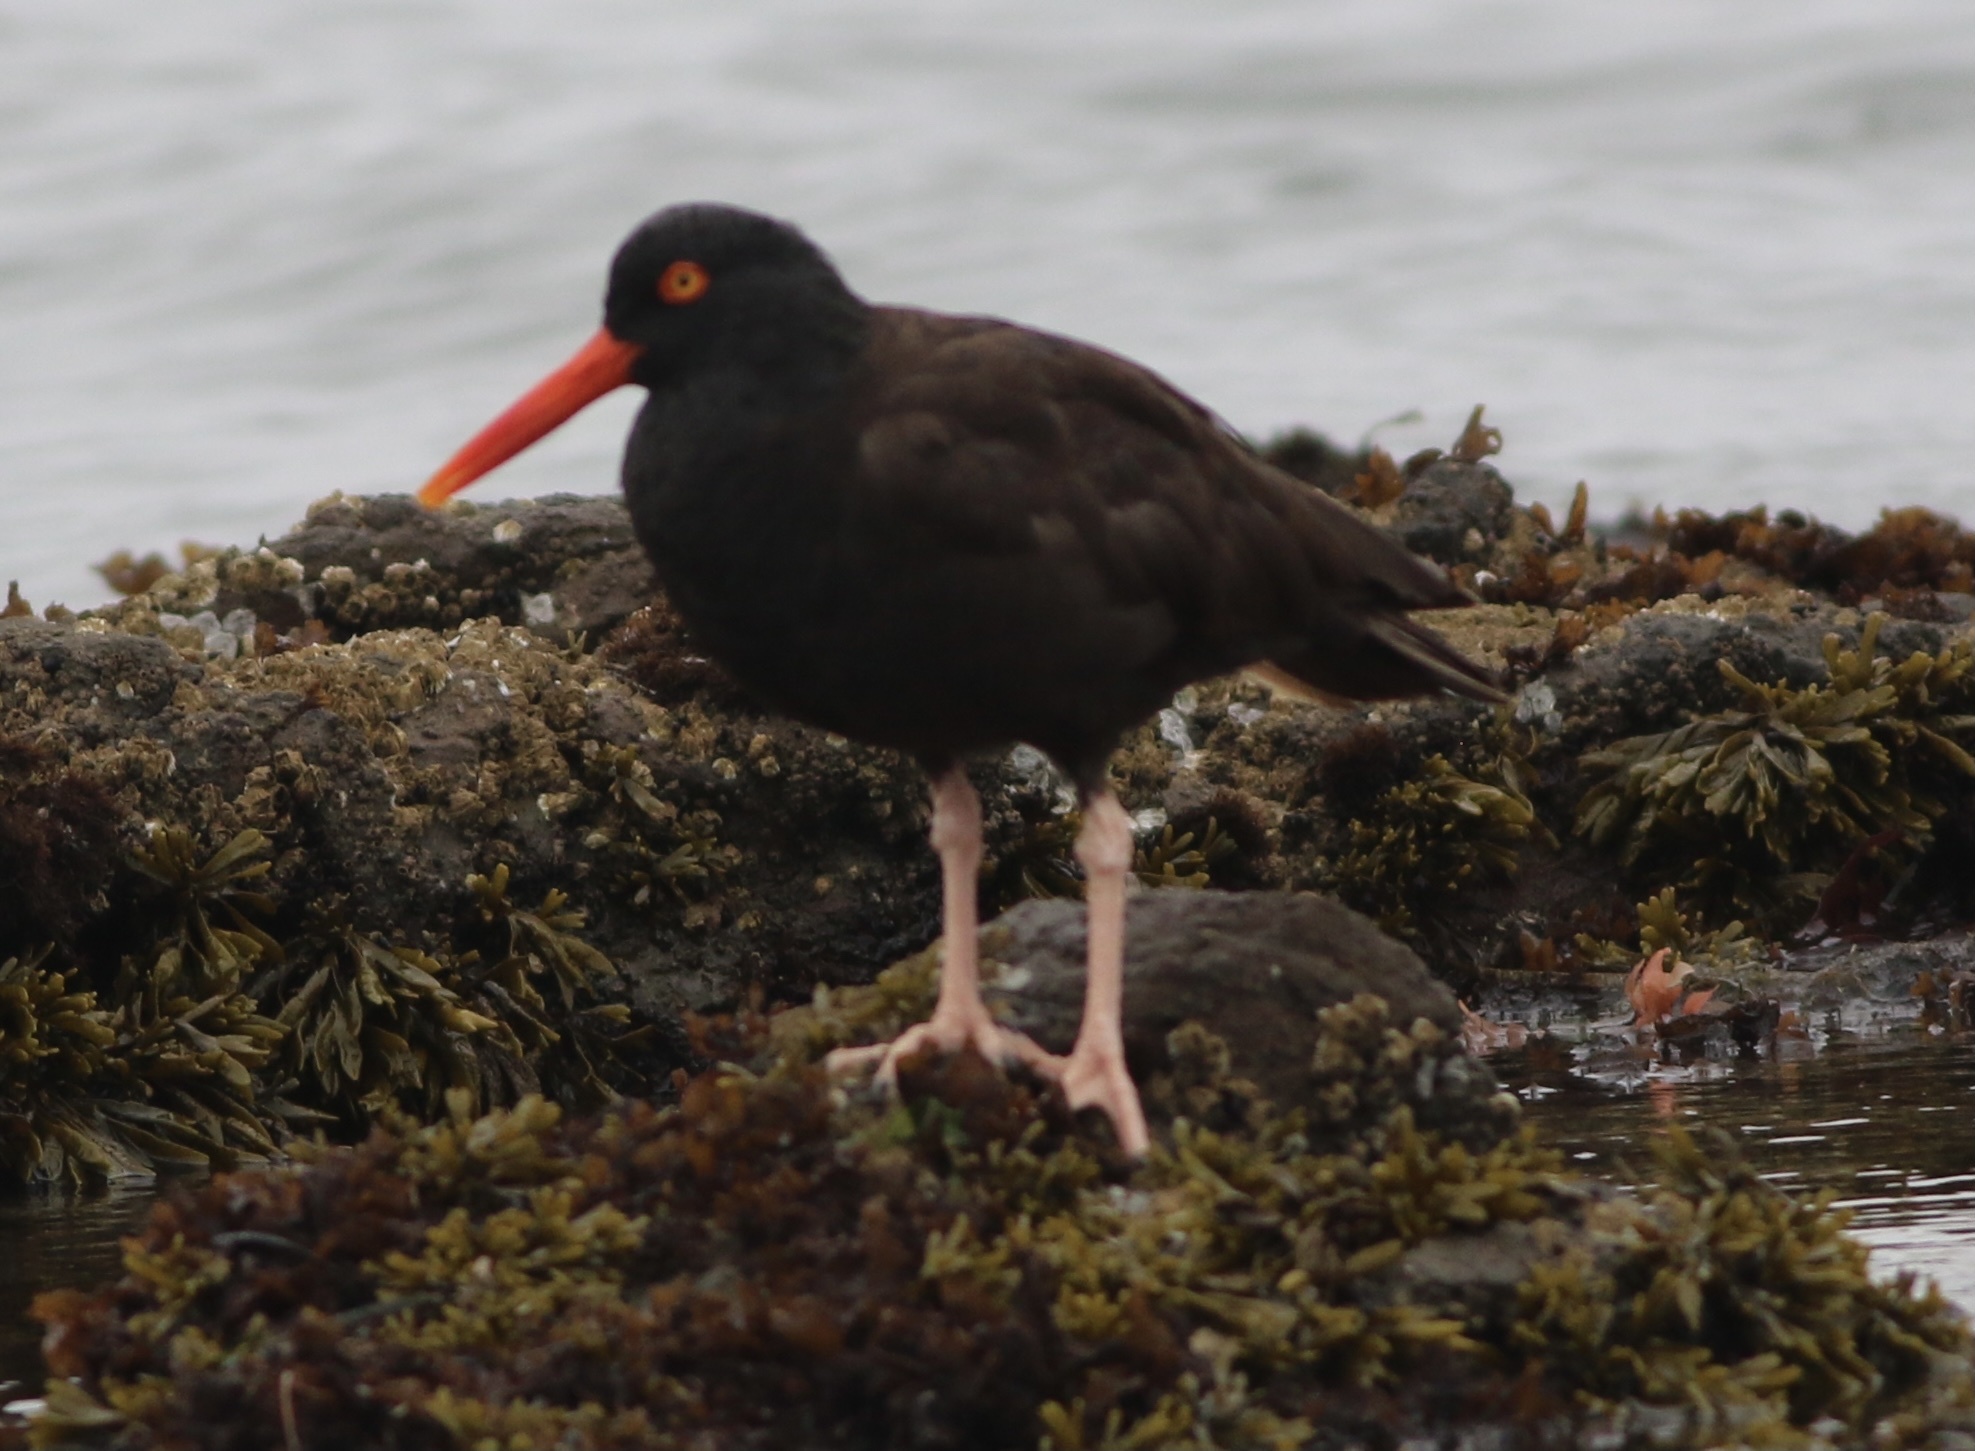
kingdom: Animalia
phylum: Chordata
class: Aves
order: Charadriiformes
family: Haematopodidae
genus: Haematopus
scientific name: Haematopus bachmani
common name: Black oystercatcher
